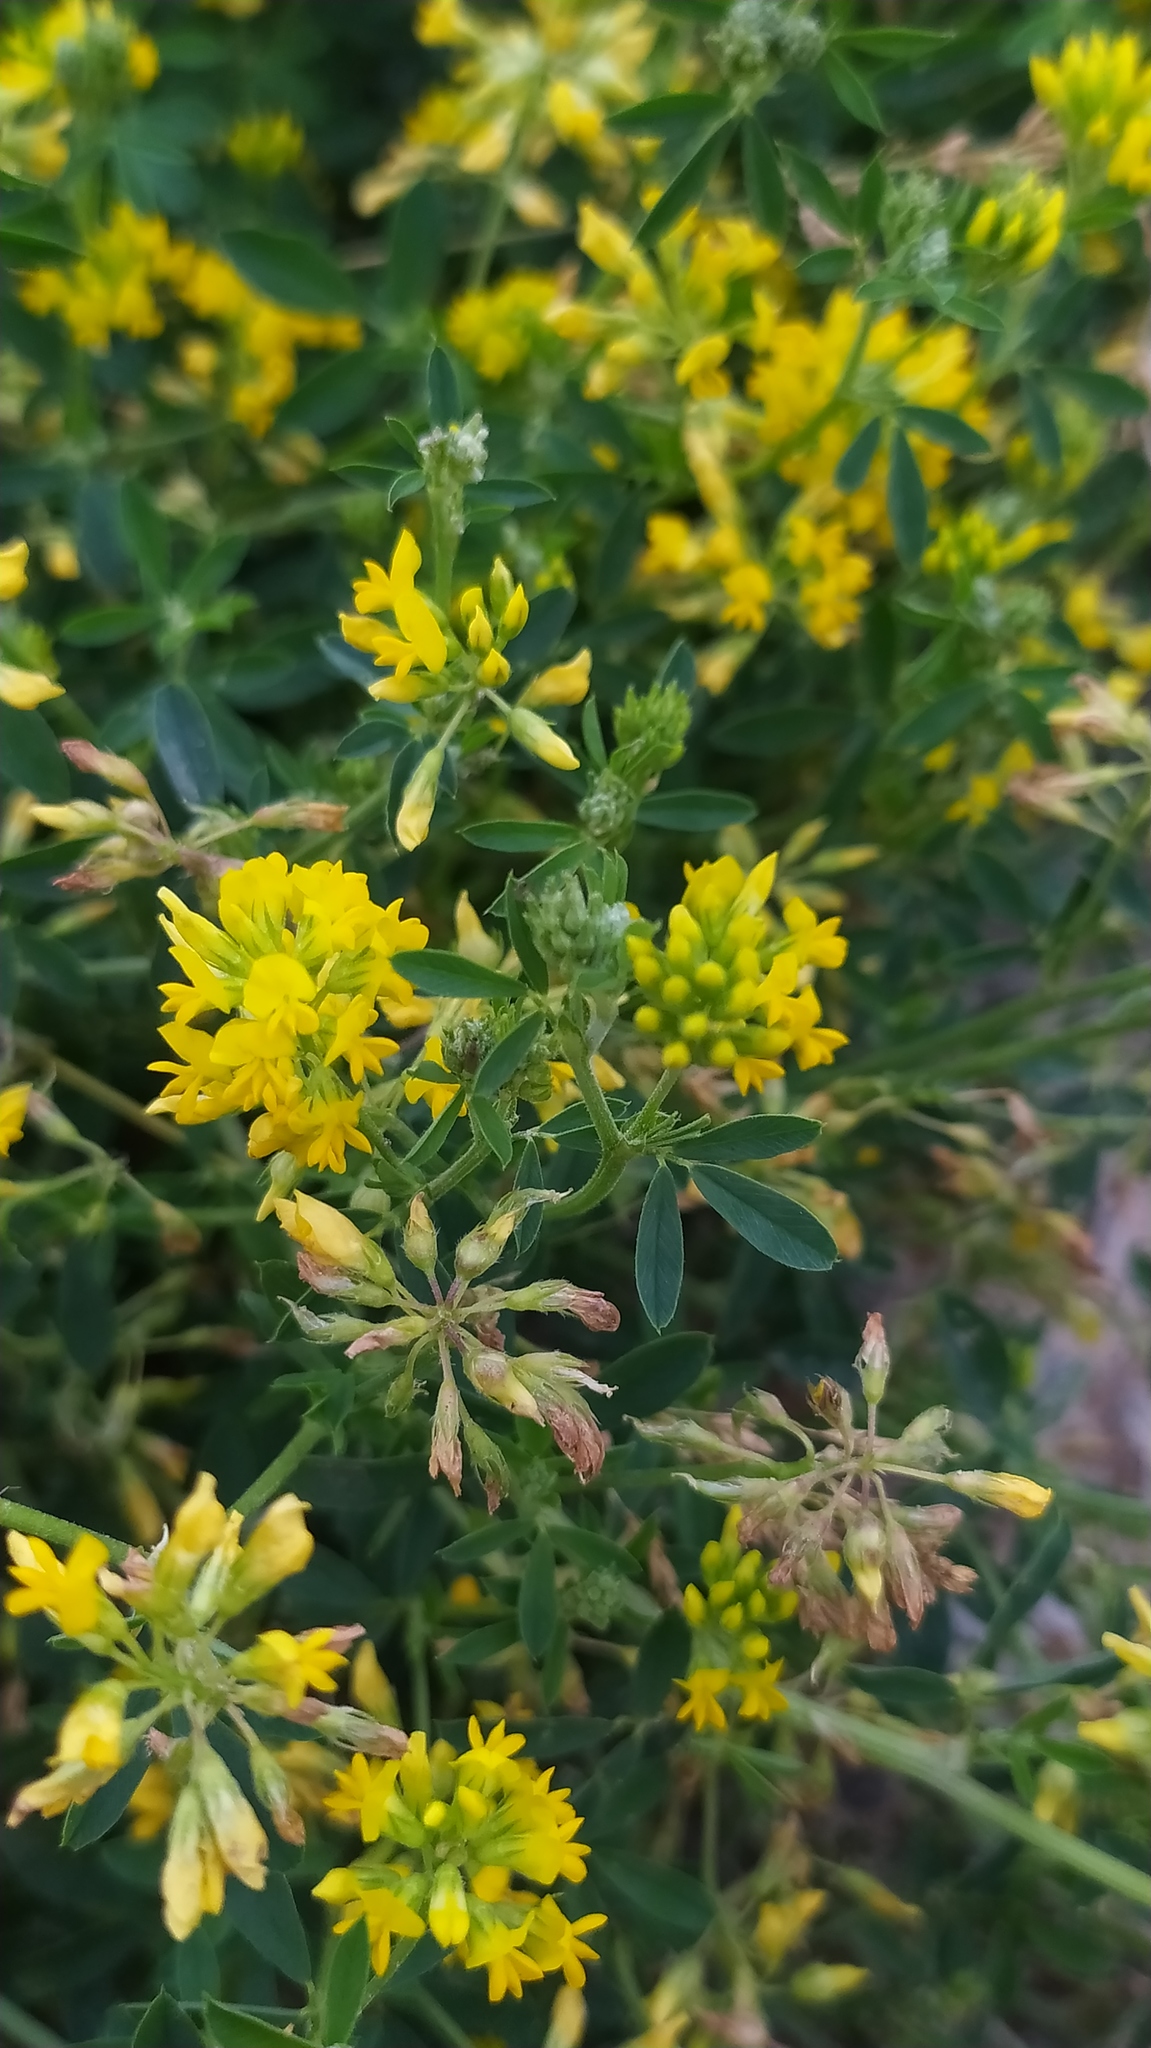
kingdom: Plantae
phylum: Tracheophyta
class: Magnoliopsida
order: Fabales
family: Fabaceae
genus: Medicago
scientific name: Medicago falcata
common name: Sickle medick
